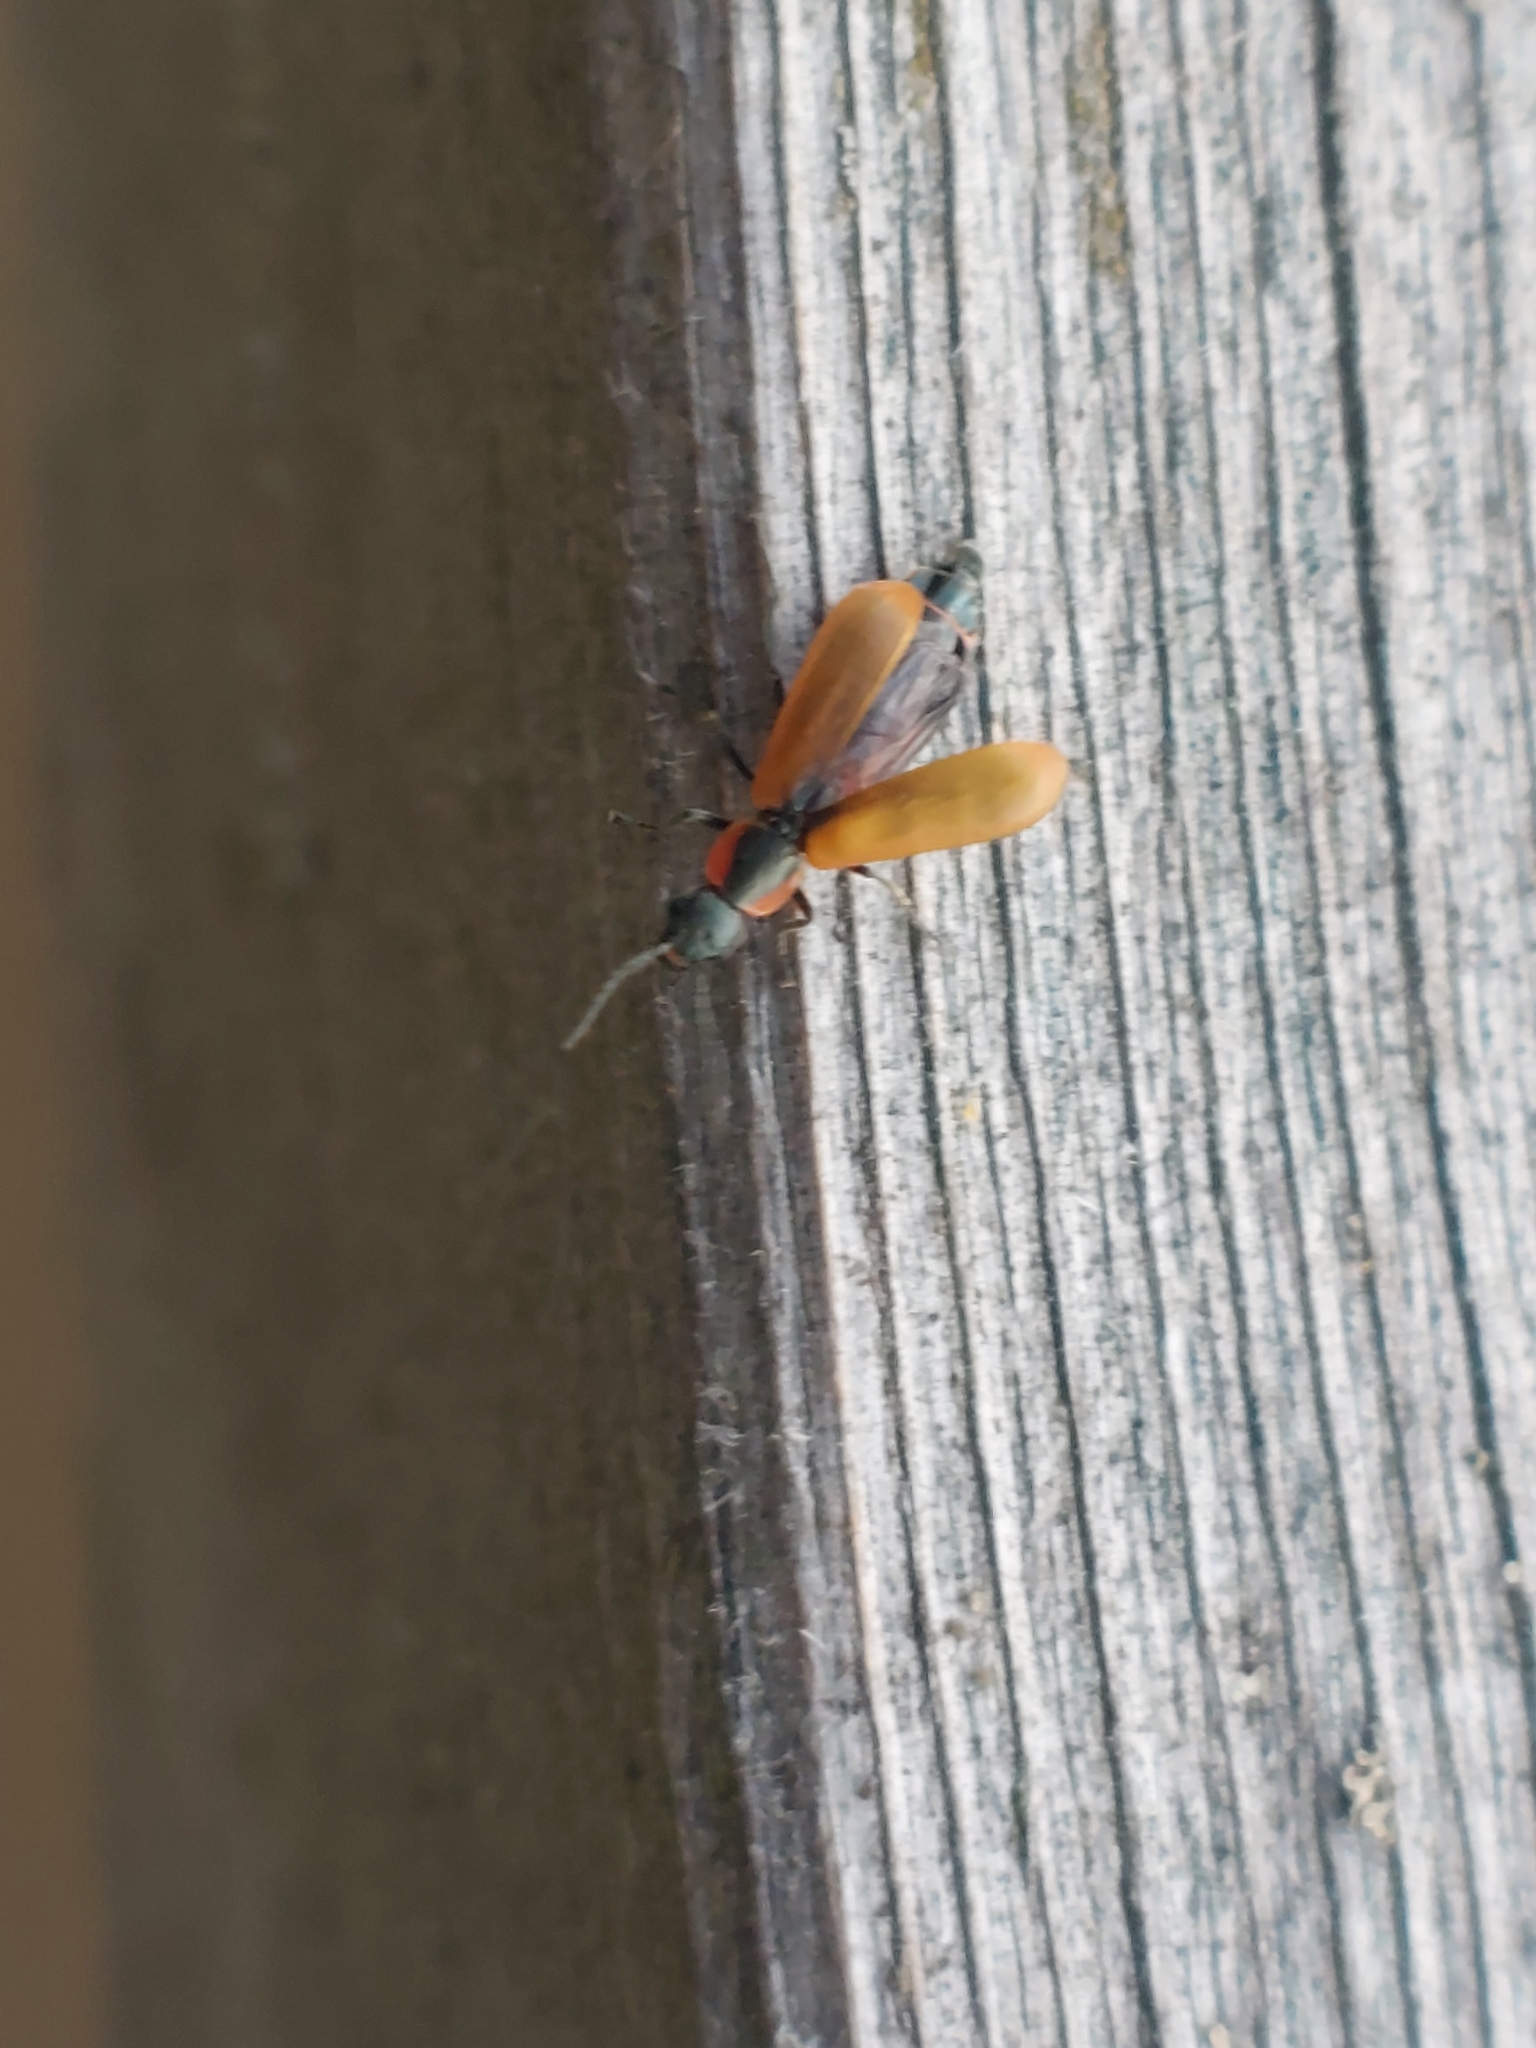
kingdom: Animalia
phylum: Arthropoda
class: Insecta
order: Coleoptera
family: Melyridae
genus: Anthocomus
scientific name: Anthocomus rufus
